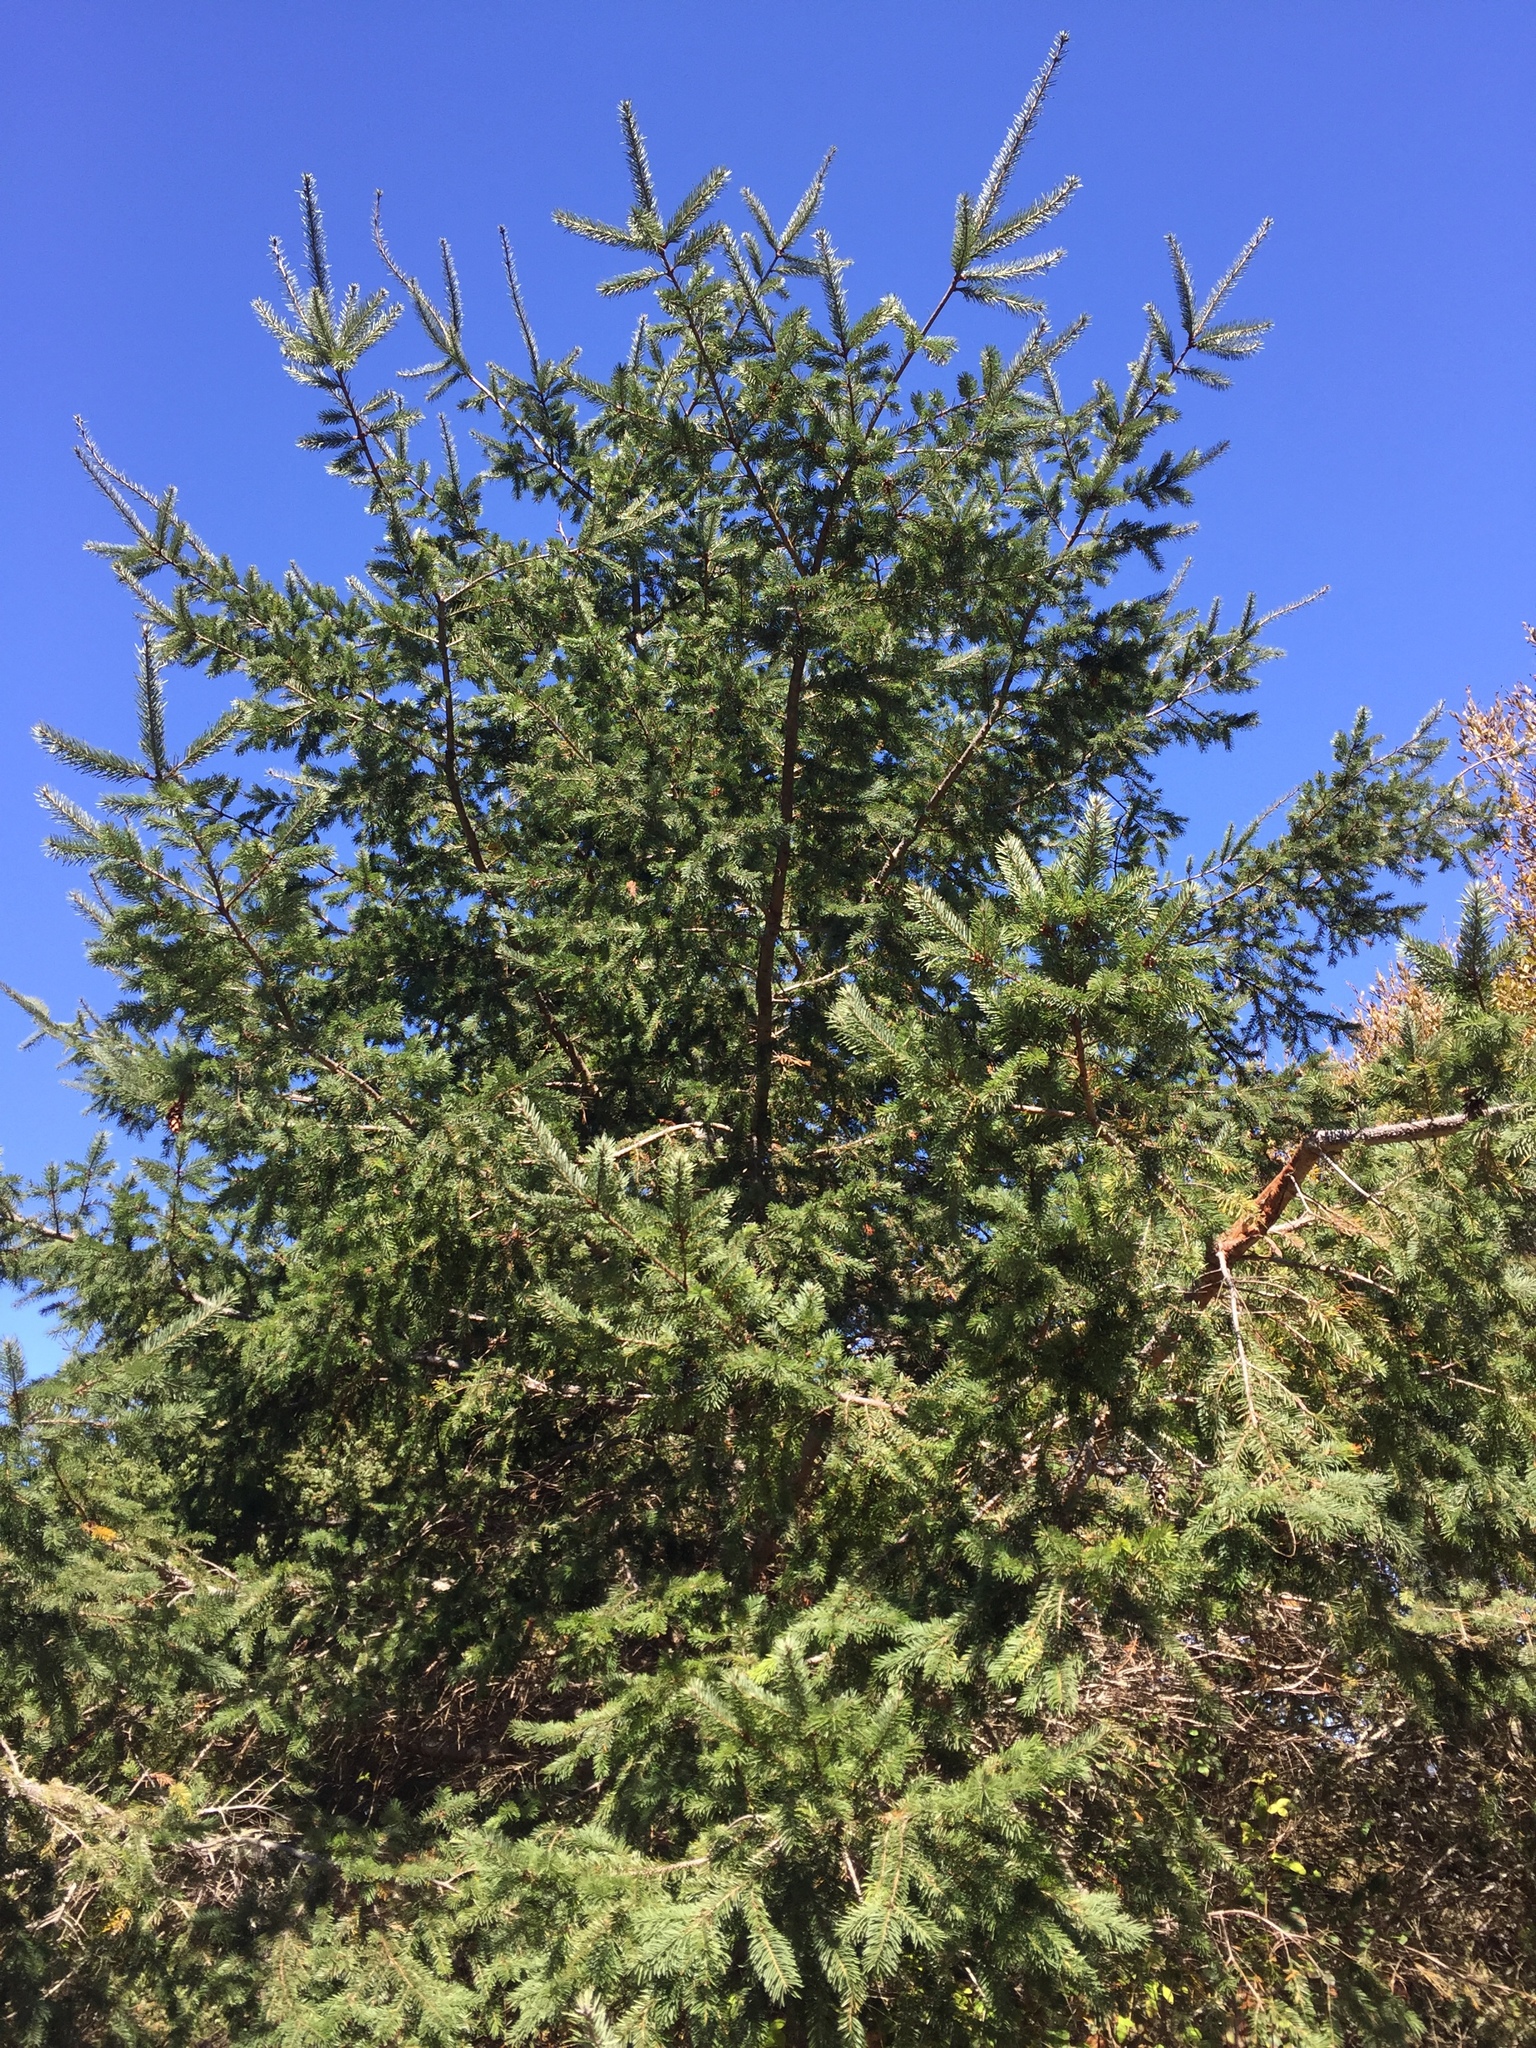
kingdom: Plantae
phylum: Tracheophyta
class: Pinopsida
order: Pinales
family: Pinaceae
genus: Pseudotsuga
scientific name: Pseudotsuga menziesii
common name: Douglas fir
